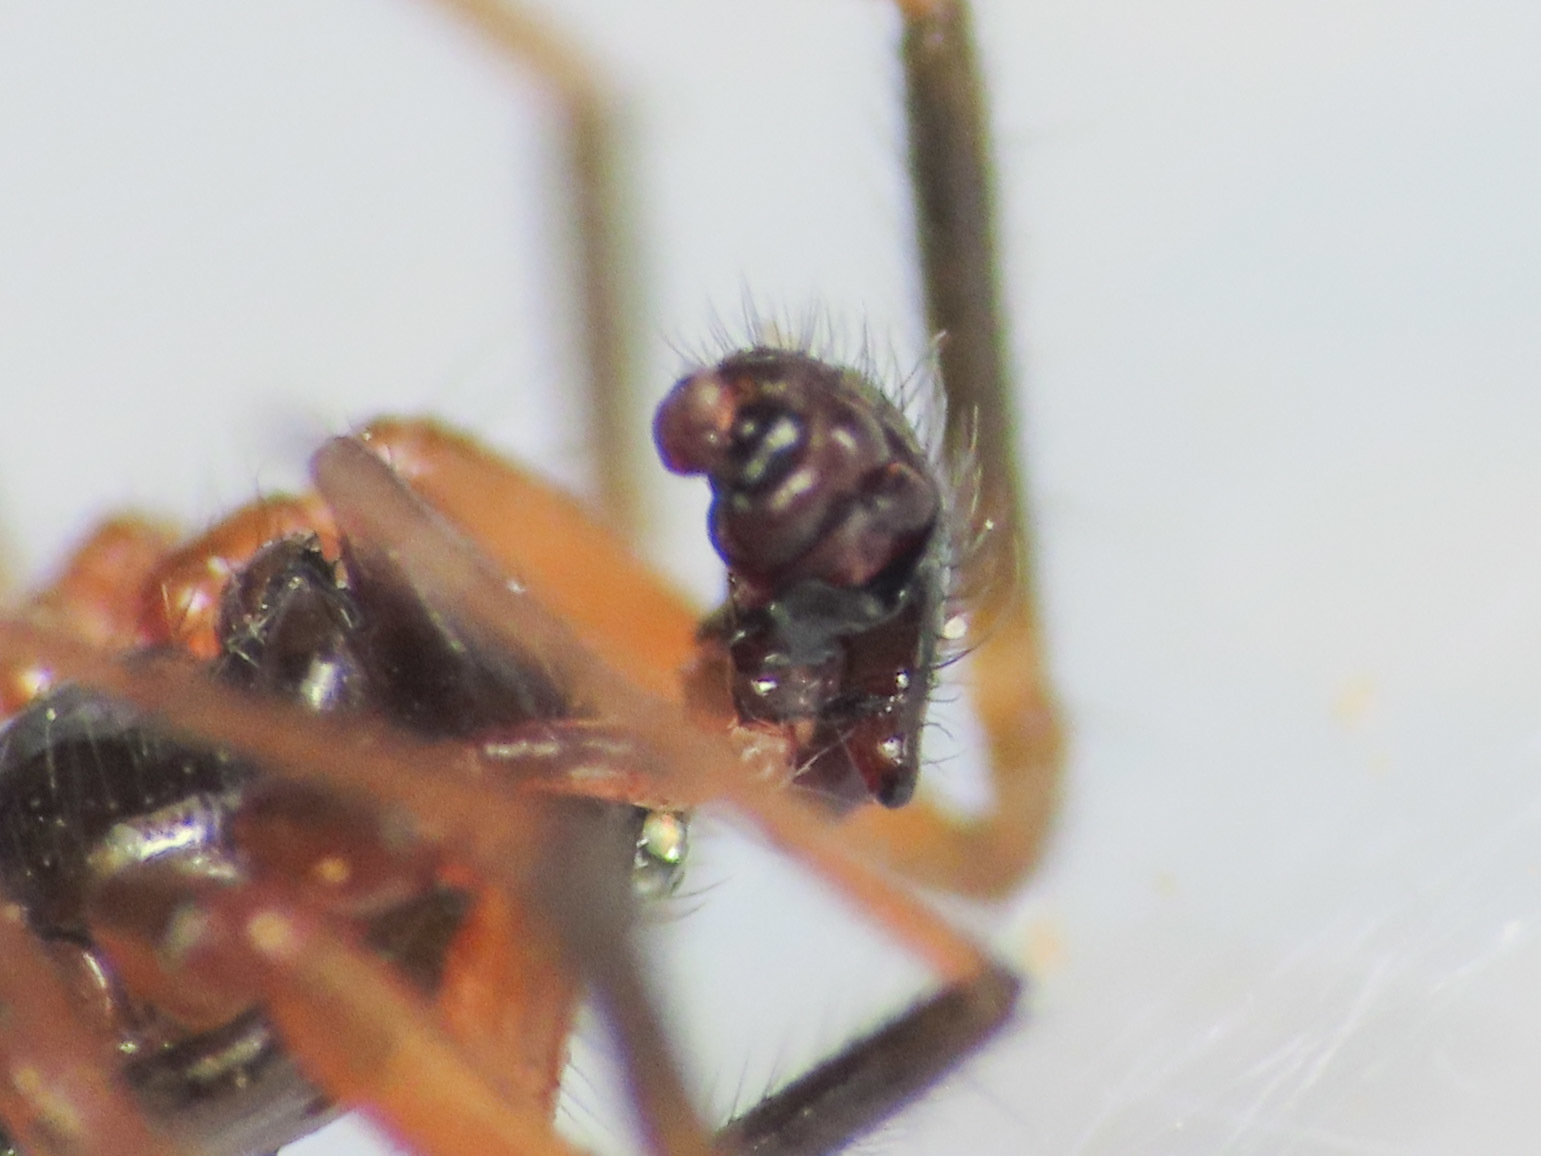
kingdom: Animalia
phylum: Arthropoda
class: Arachnida
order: Araneae
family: Linyphiidae
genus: Sintula
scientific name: Sintula retroversus
